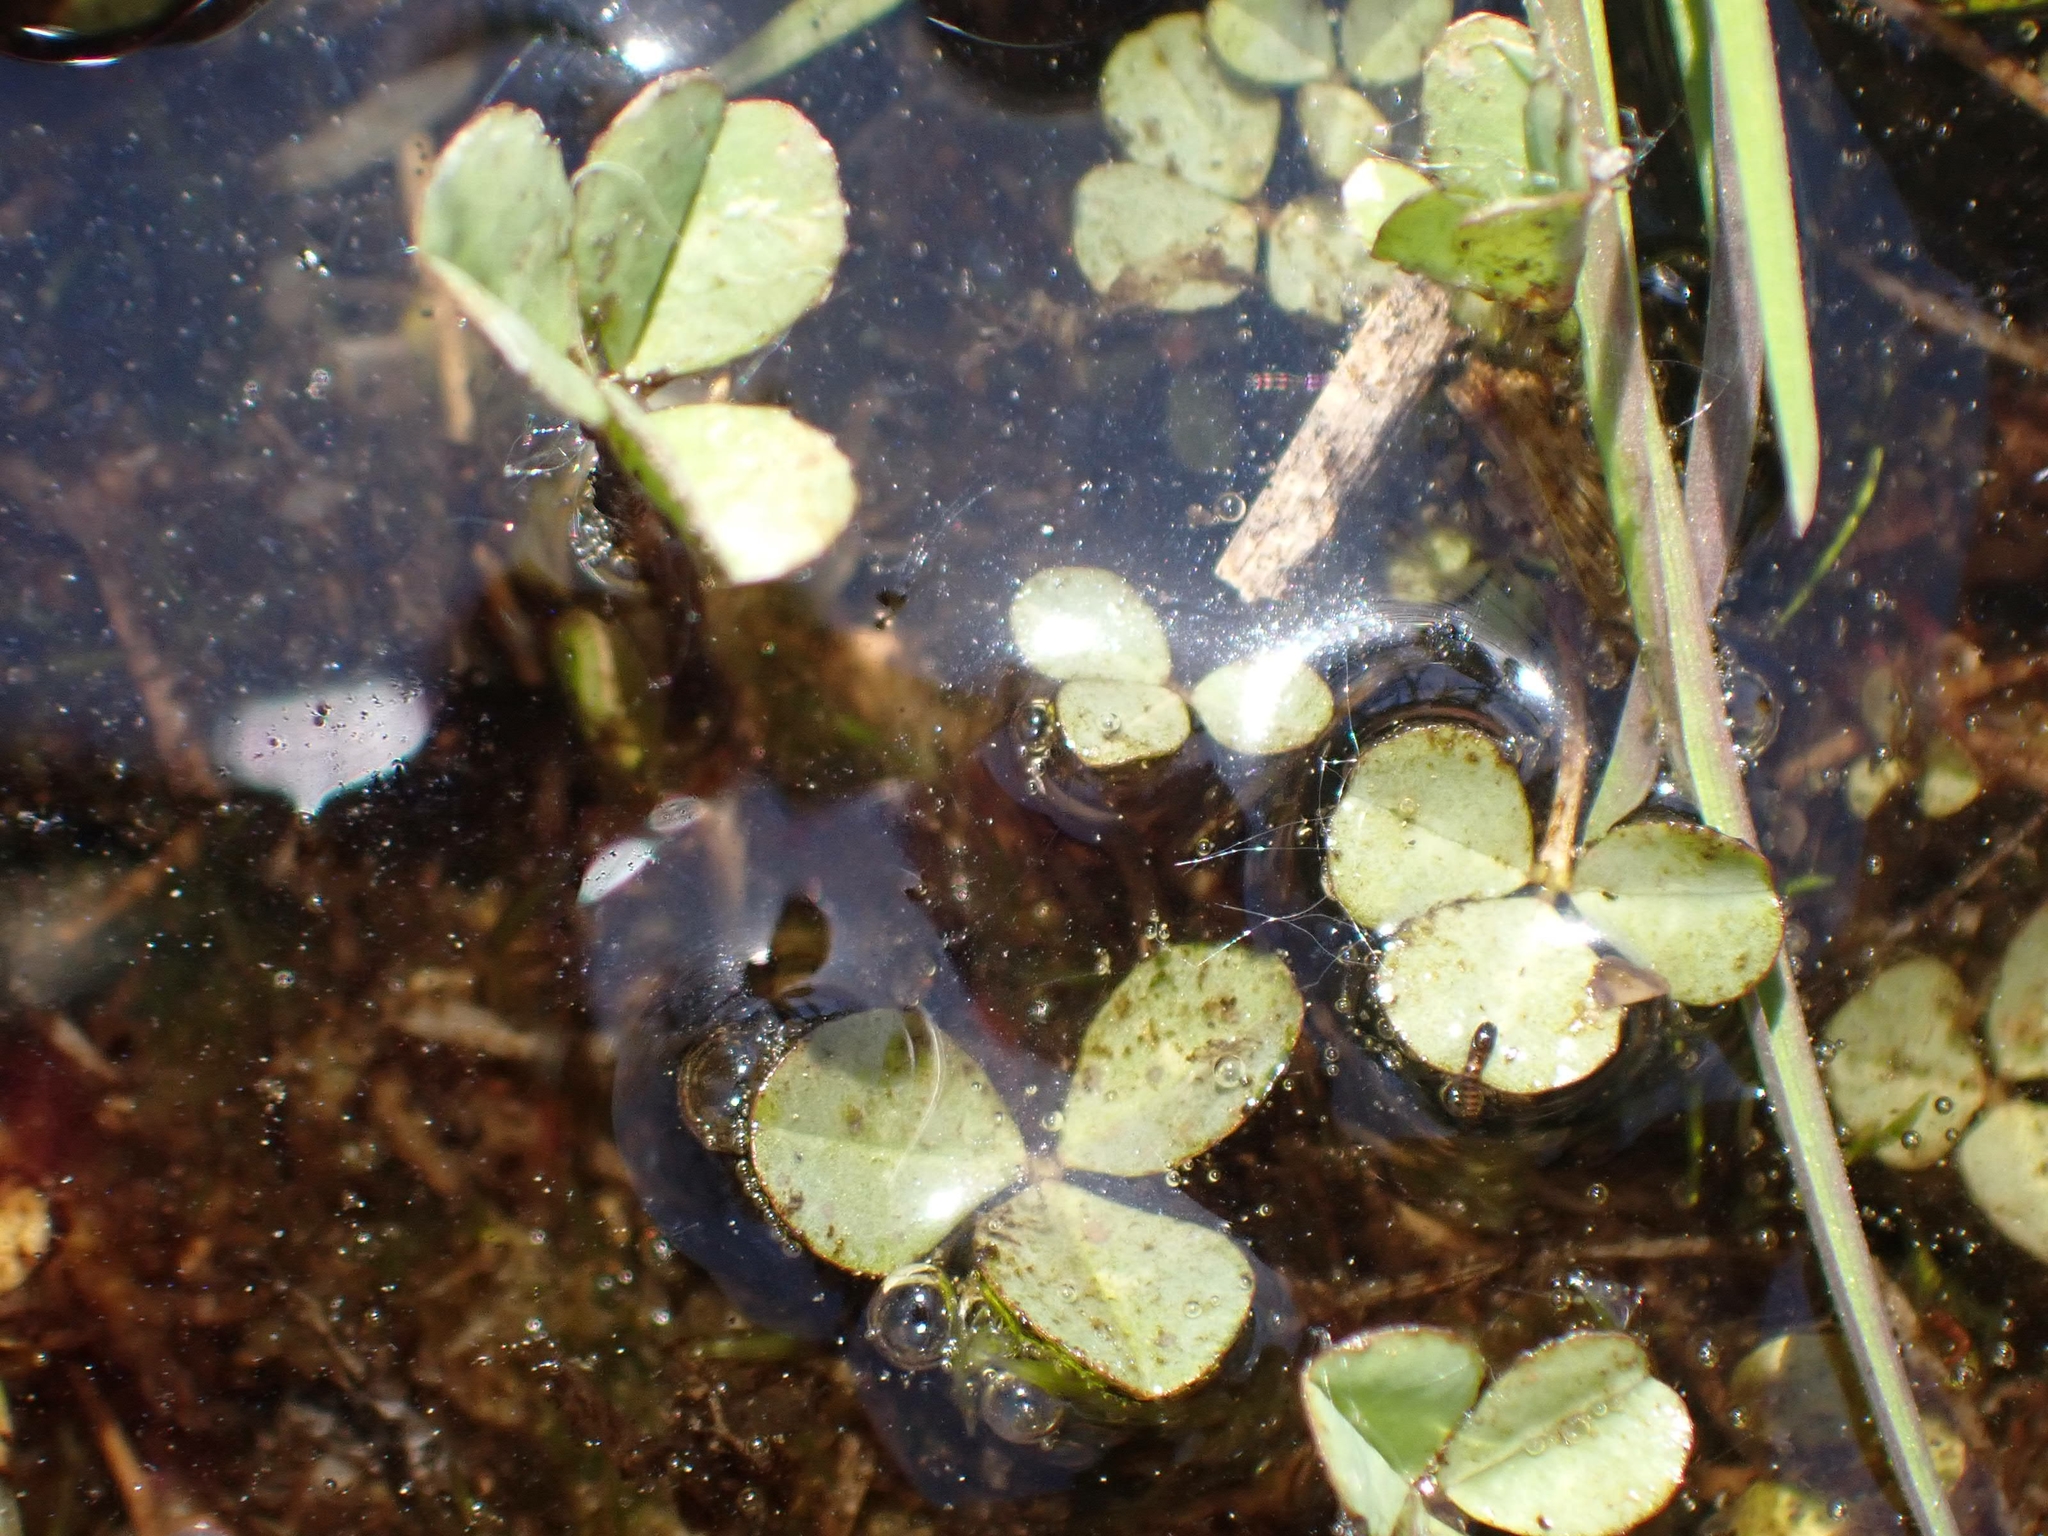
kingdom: Plantae
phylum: Tracheophyta
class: Magnoliopsida
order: Fabales
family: Fabaceae
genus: Trifolium
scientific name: Trifolium repens
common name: White clover
